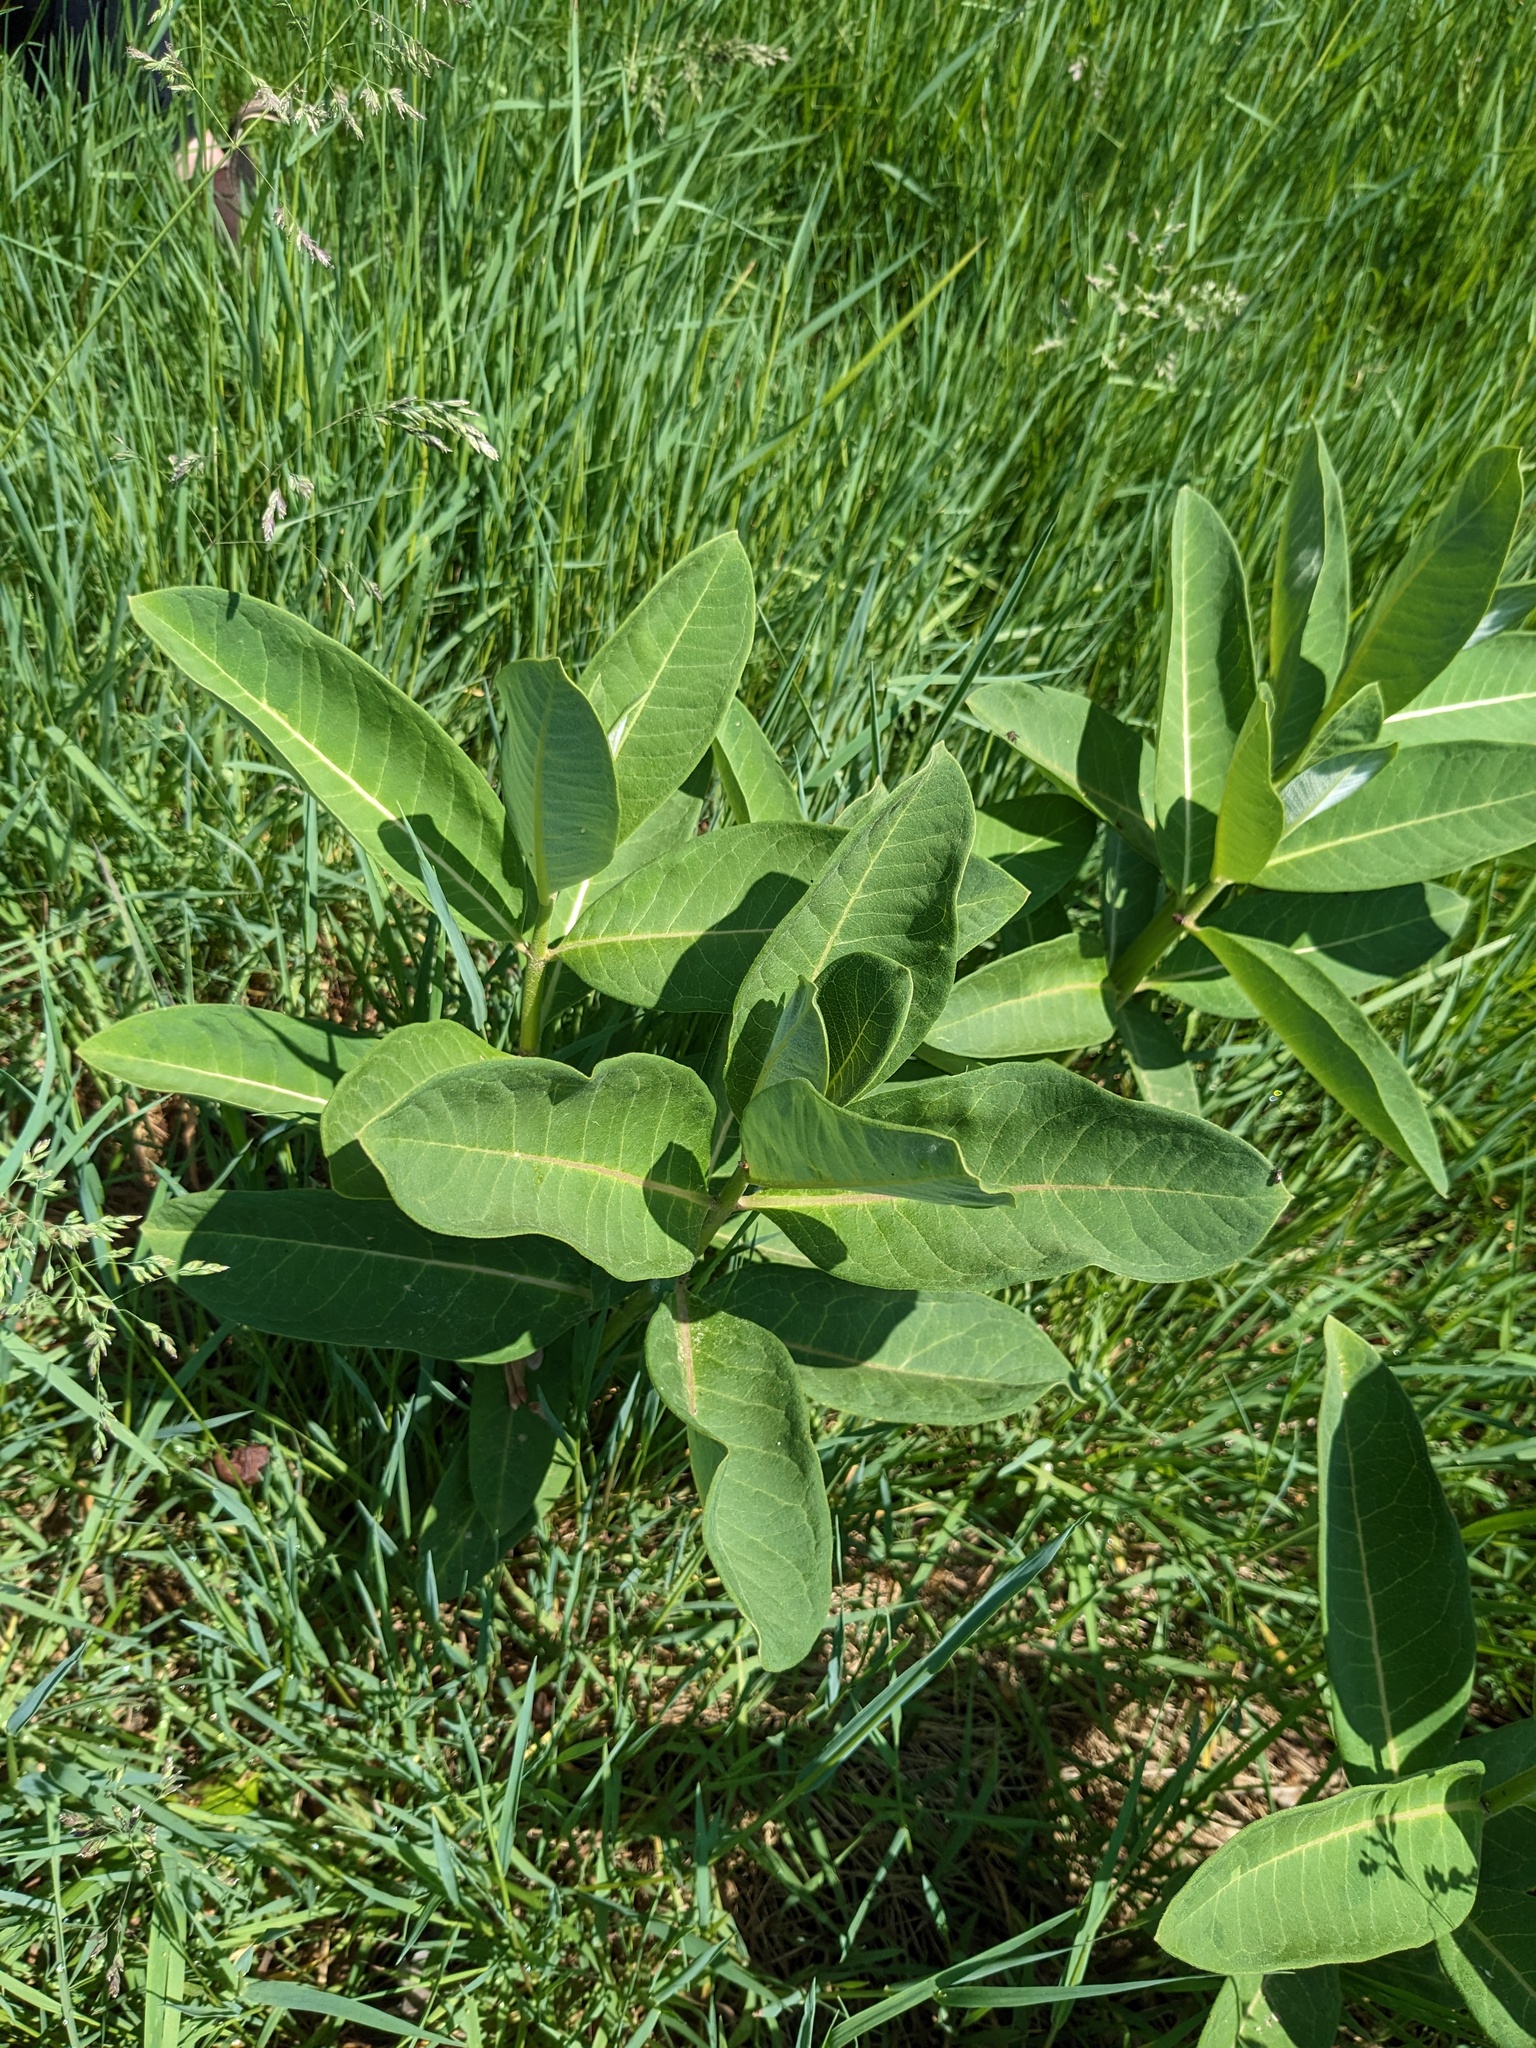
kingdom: Plantae
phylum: Tracheophyta
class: Magnoliopsida
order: Gentianales
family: Apocynaceae
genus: Asclepias
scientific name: Asclepias syriaca
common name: Common milkweed
